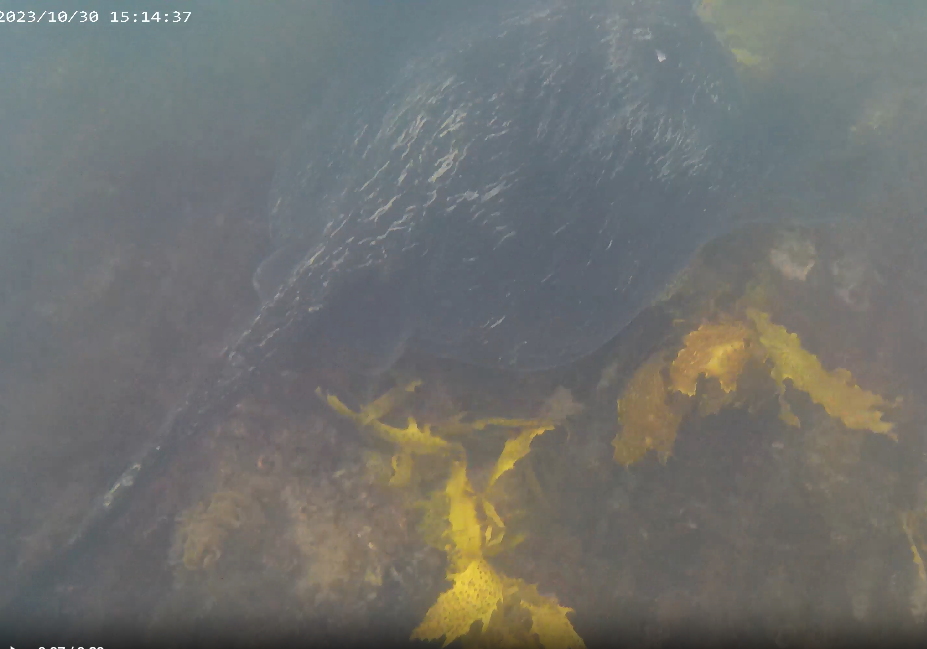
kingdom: Animalia
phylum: Chordata
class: Elasmobranchii
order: Myliobatiformes
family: Dasyatidae
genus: Bathytoshia
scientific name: Bathytoshia brevicaudata
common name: Short-tail stingray
